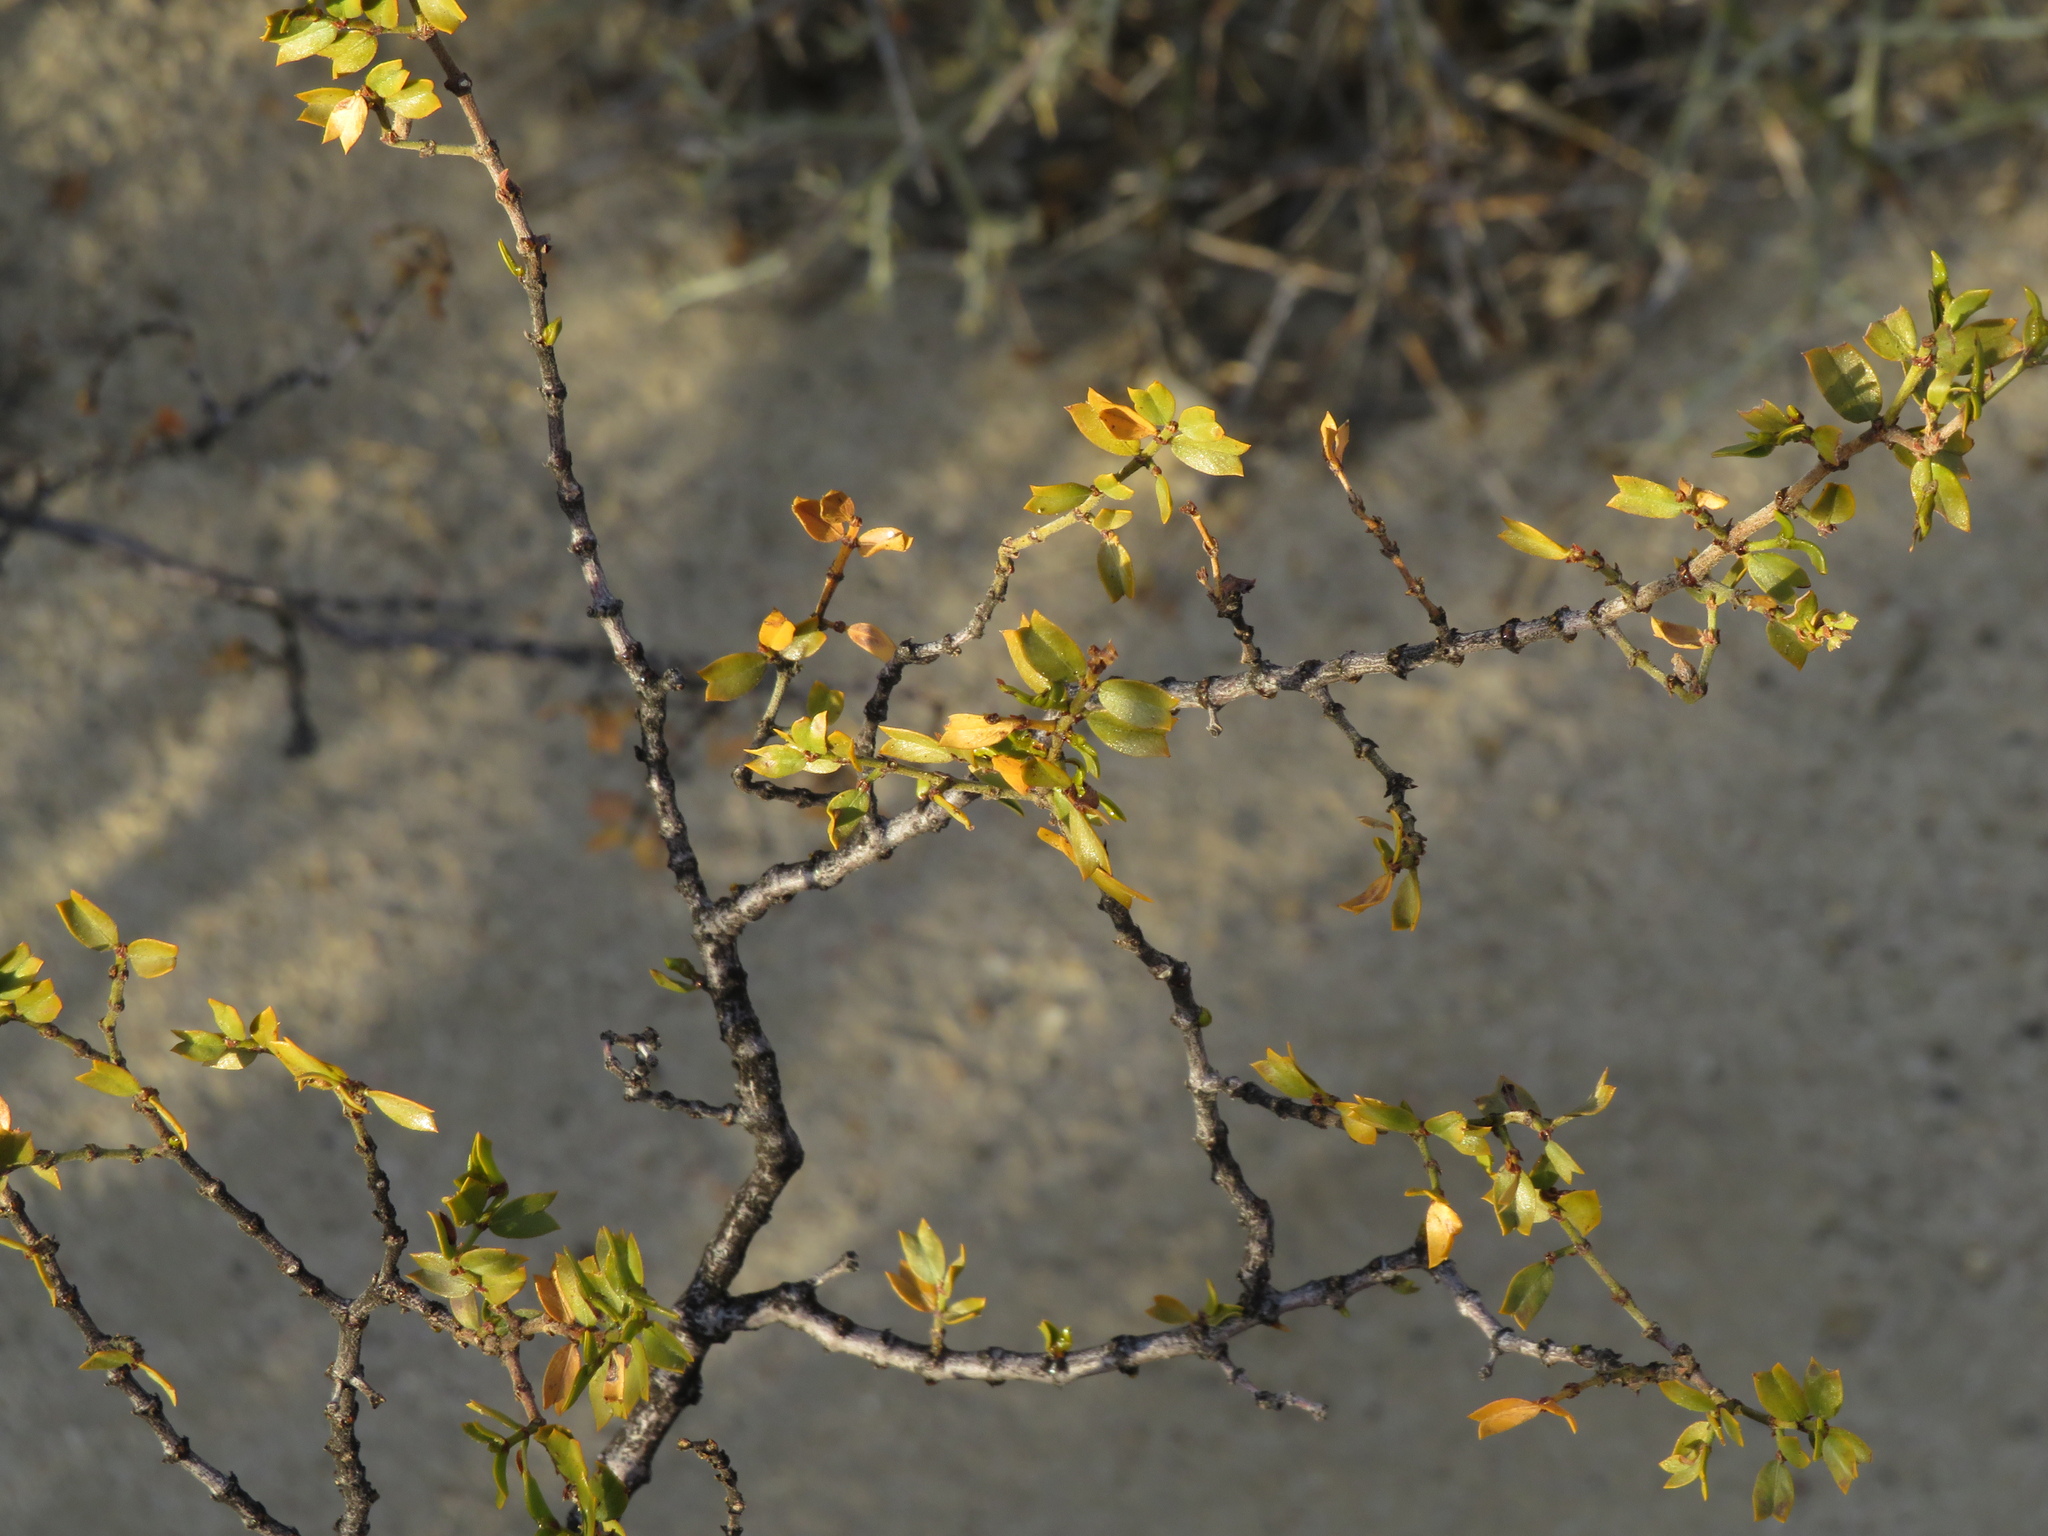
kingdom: Plantae
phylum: Tracheophyta
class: Magnoliopsida
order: Zygophyllales
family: Zygophyllaceae
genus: Larrea
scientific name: Larrea cuneifolia
